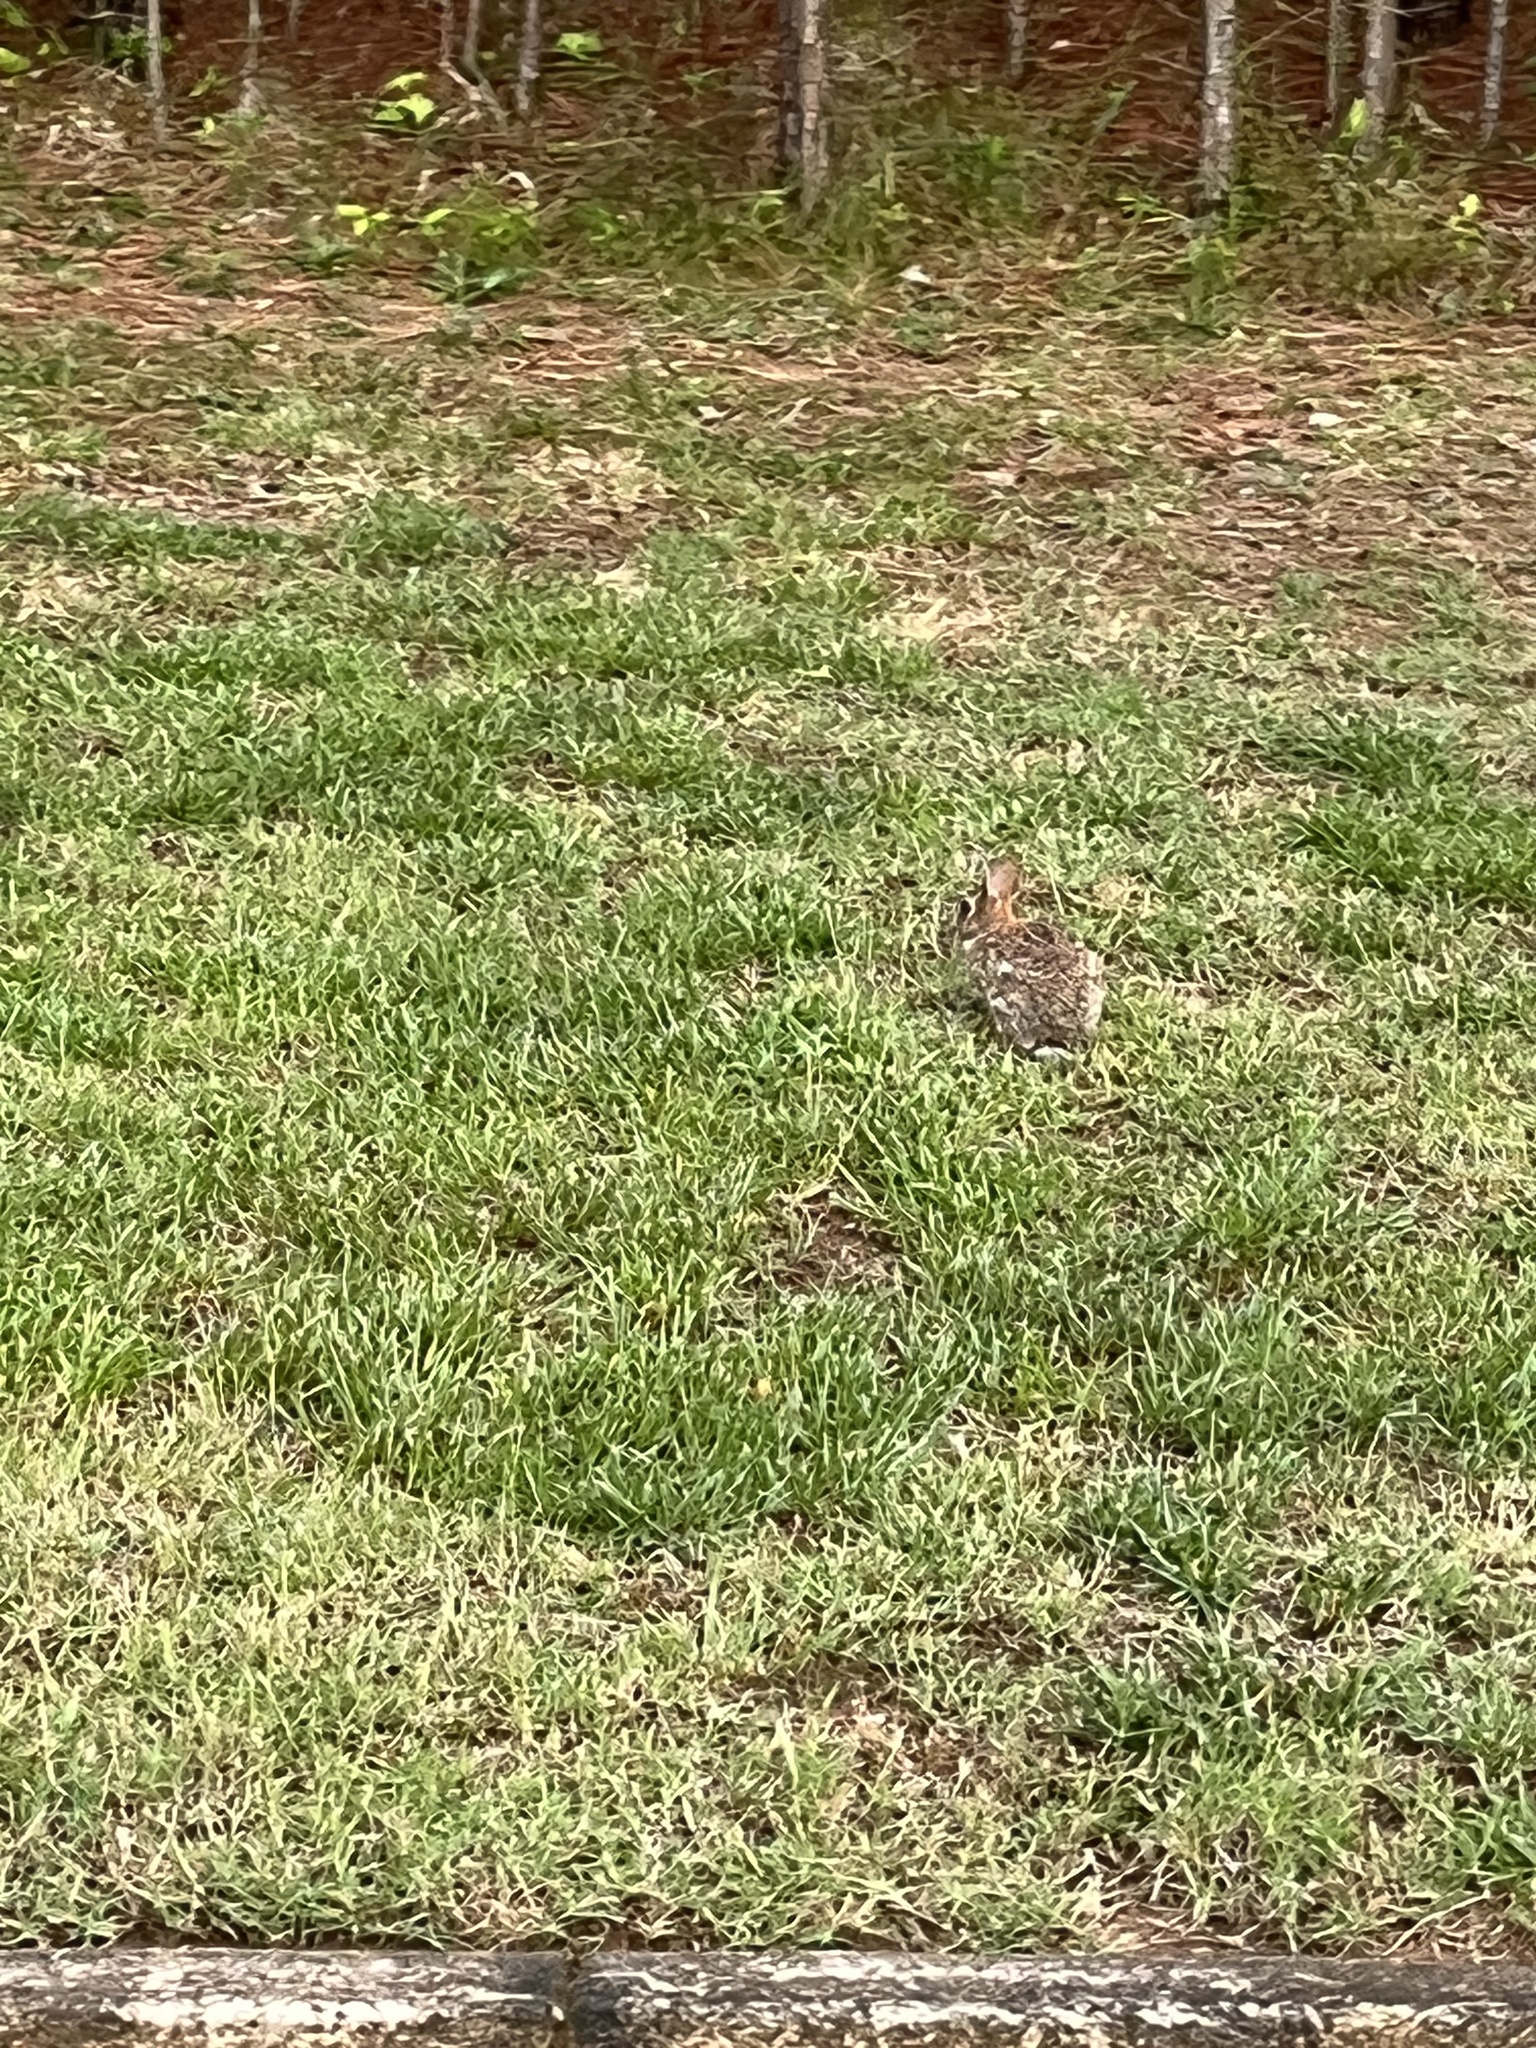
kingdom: Animalia
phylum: Chordata
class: Mammalia
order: Lagomorpha
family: Leporidae
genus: Sylvilagus
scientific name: Sylvilagus floridanus
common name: Eastern cottontail
